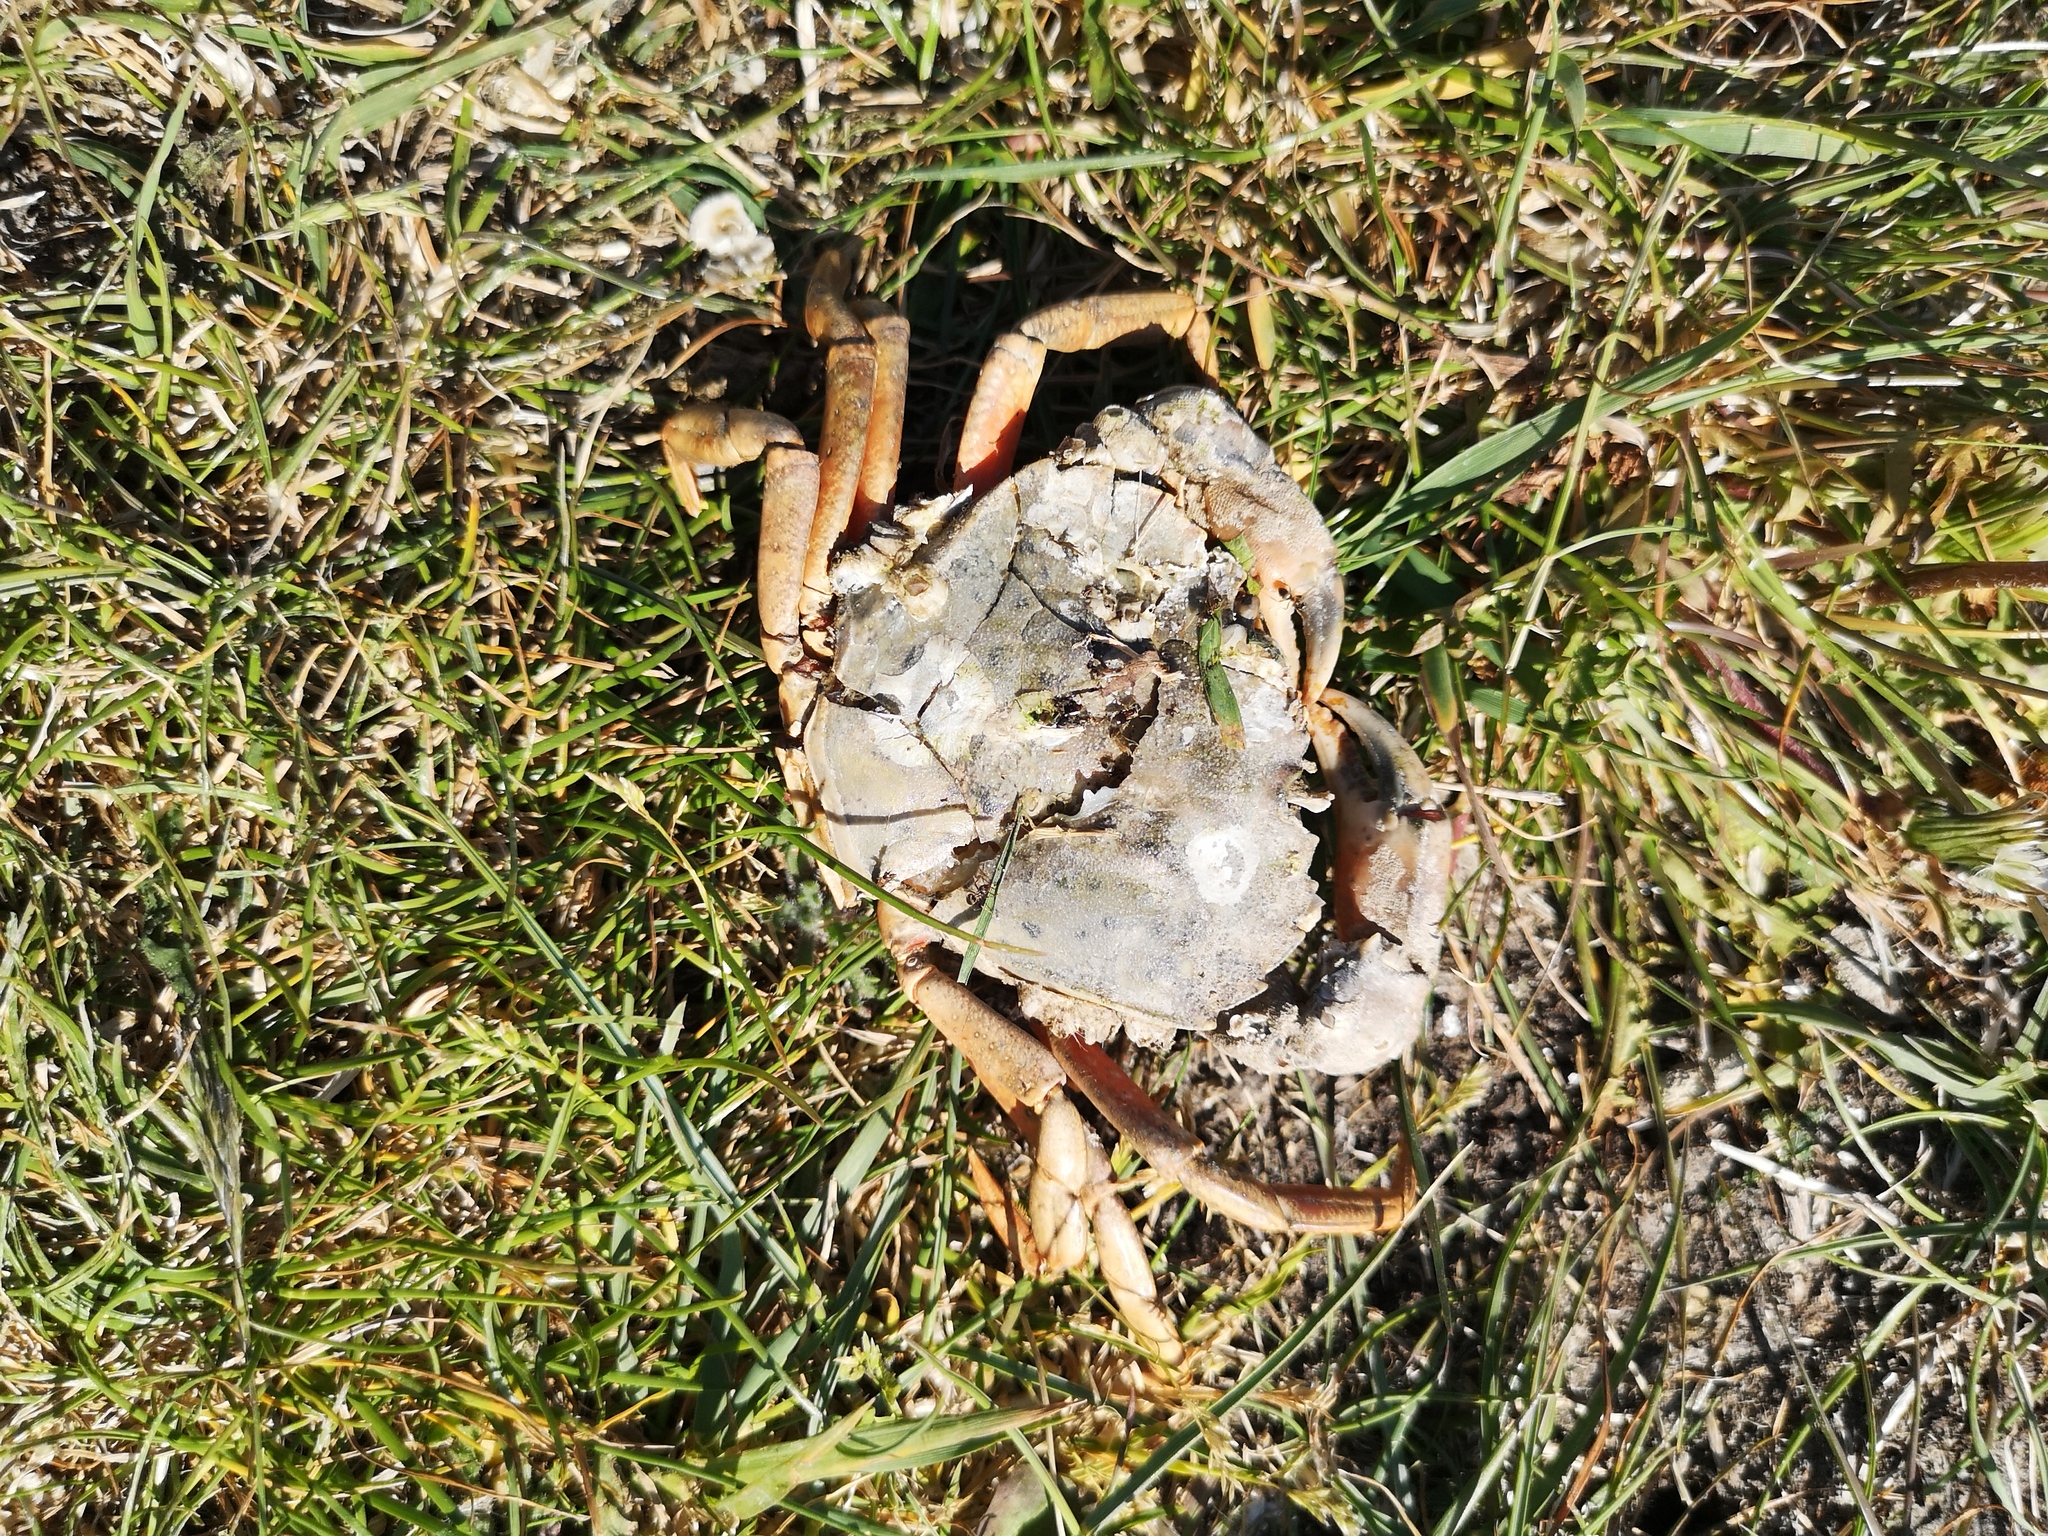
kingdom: Animalia
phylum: Arthropoda
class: Malacostraca
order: Decapoda
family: Carcinidae
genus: Carcinus
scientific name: Carcinus maenas
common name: European green crab
